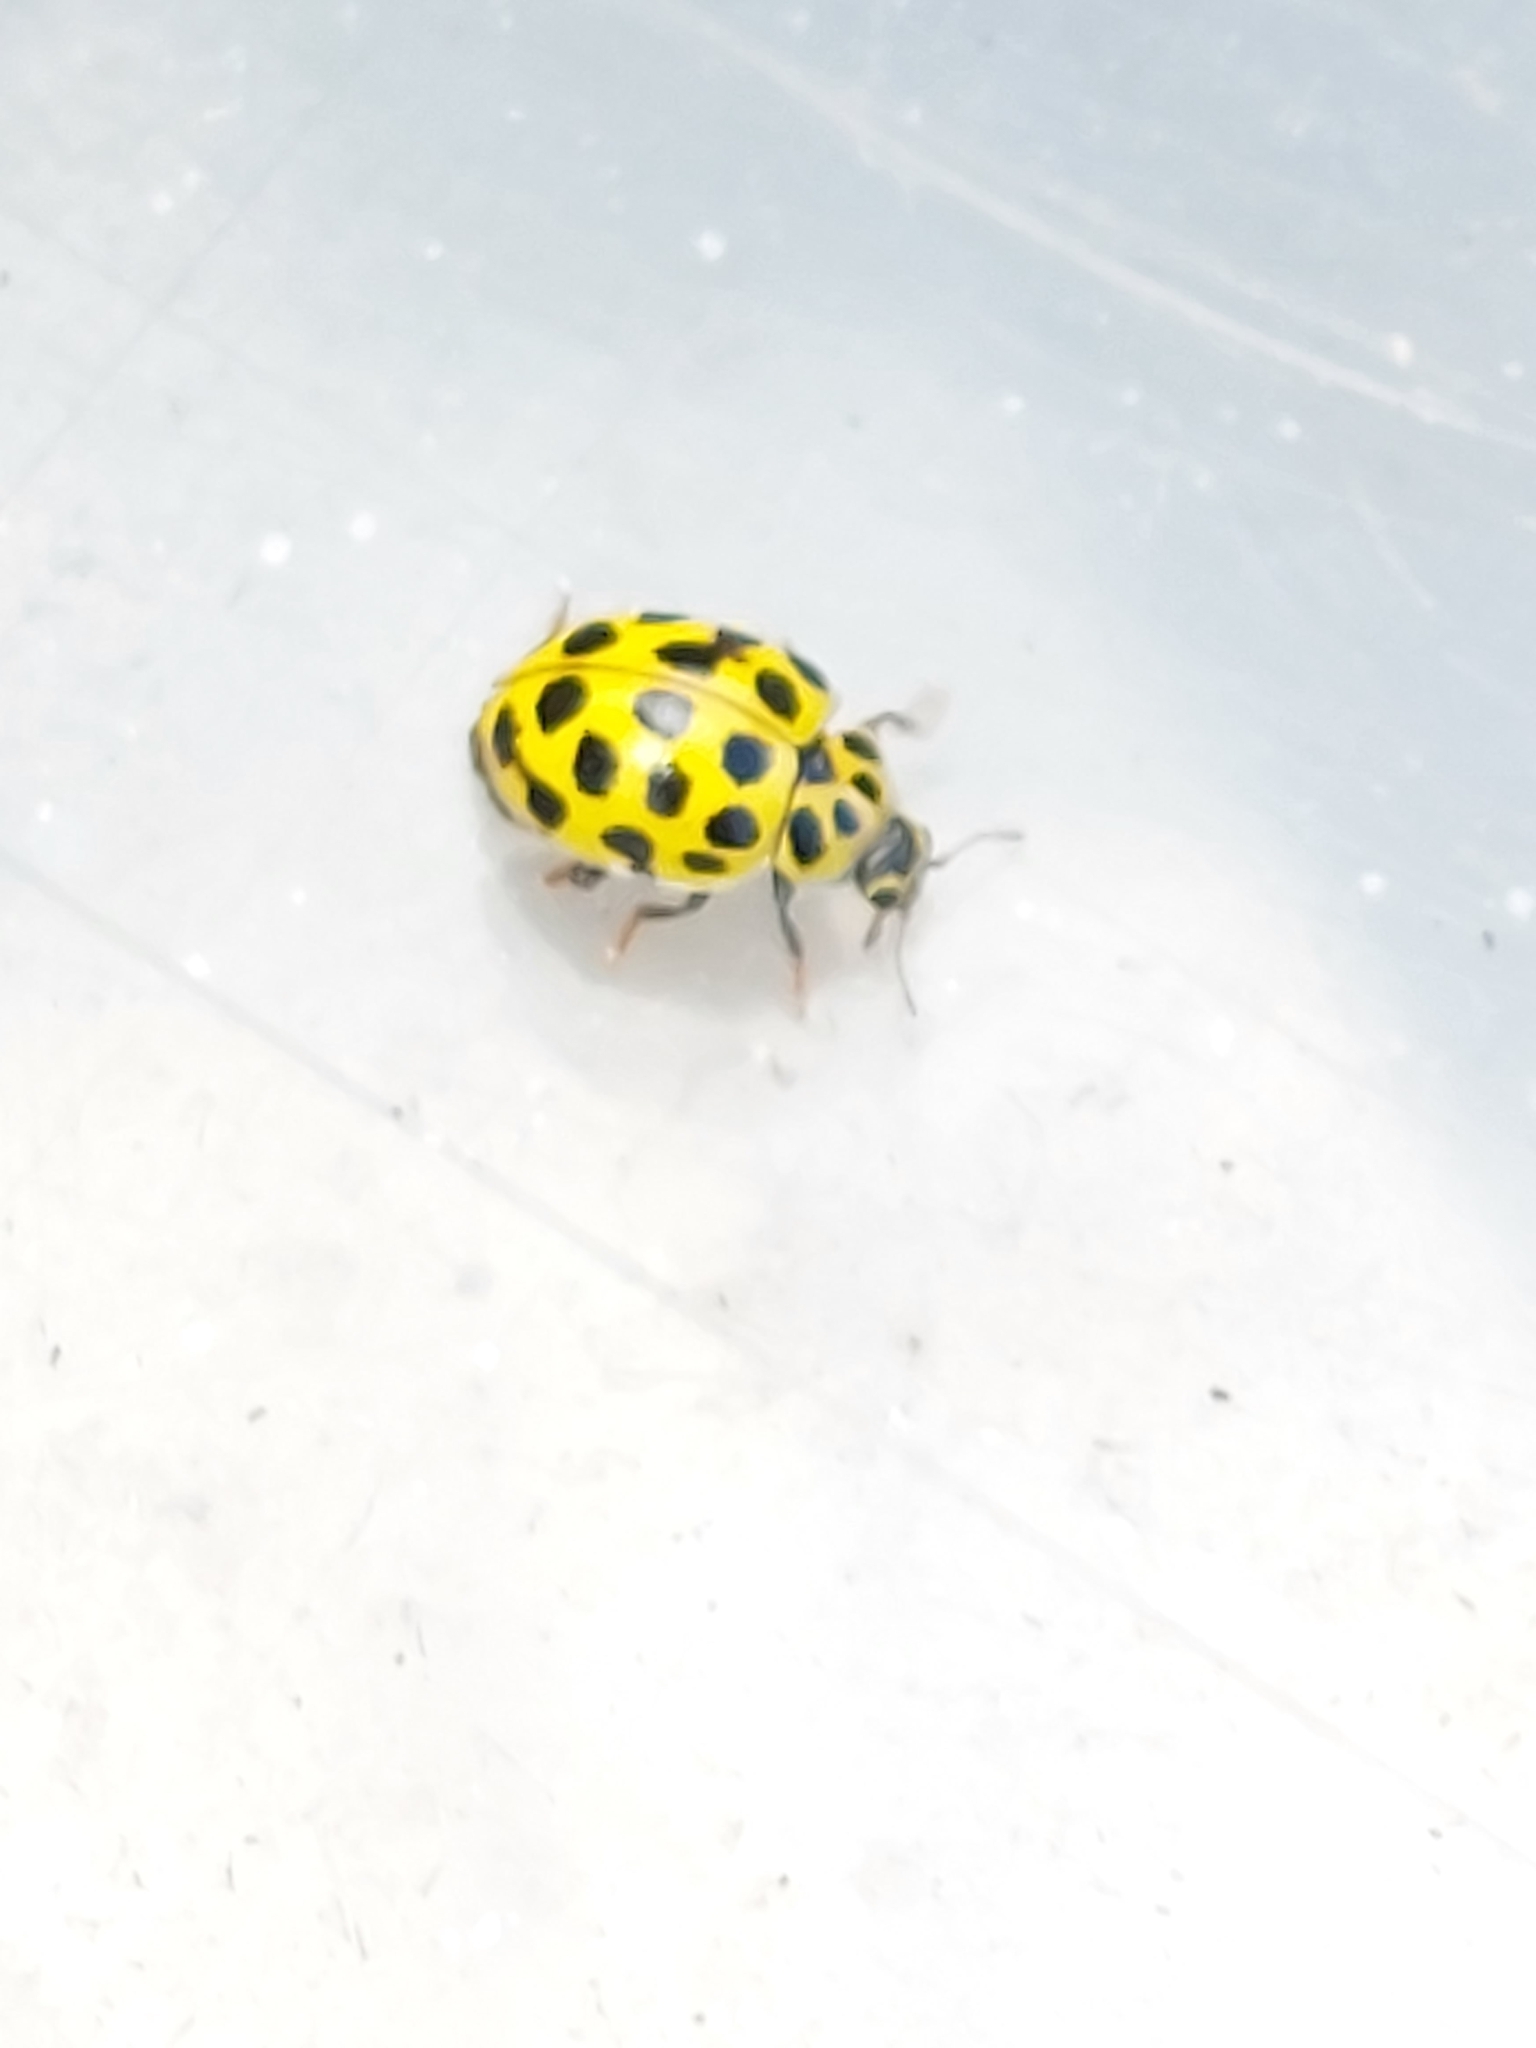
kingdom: Animalia
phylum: Arthropoda
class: Insecta
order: Coleoptera
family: Coccinellidae
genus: Psyllobora
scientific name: Psyllobora vigintiduopunctata
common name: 22-spot ladybird
